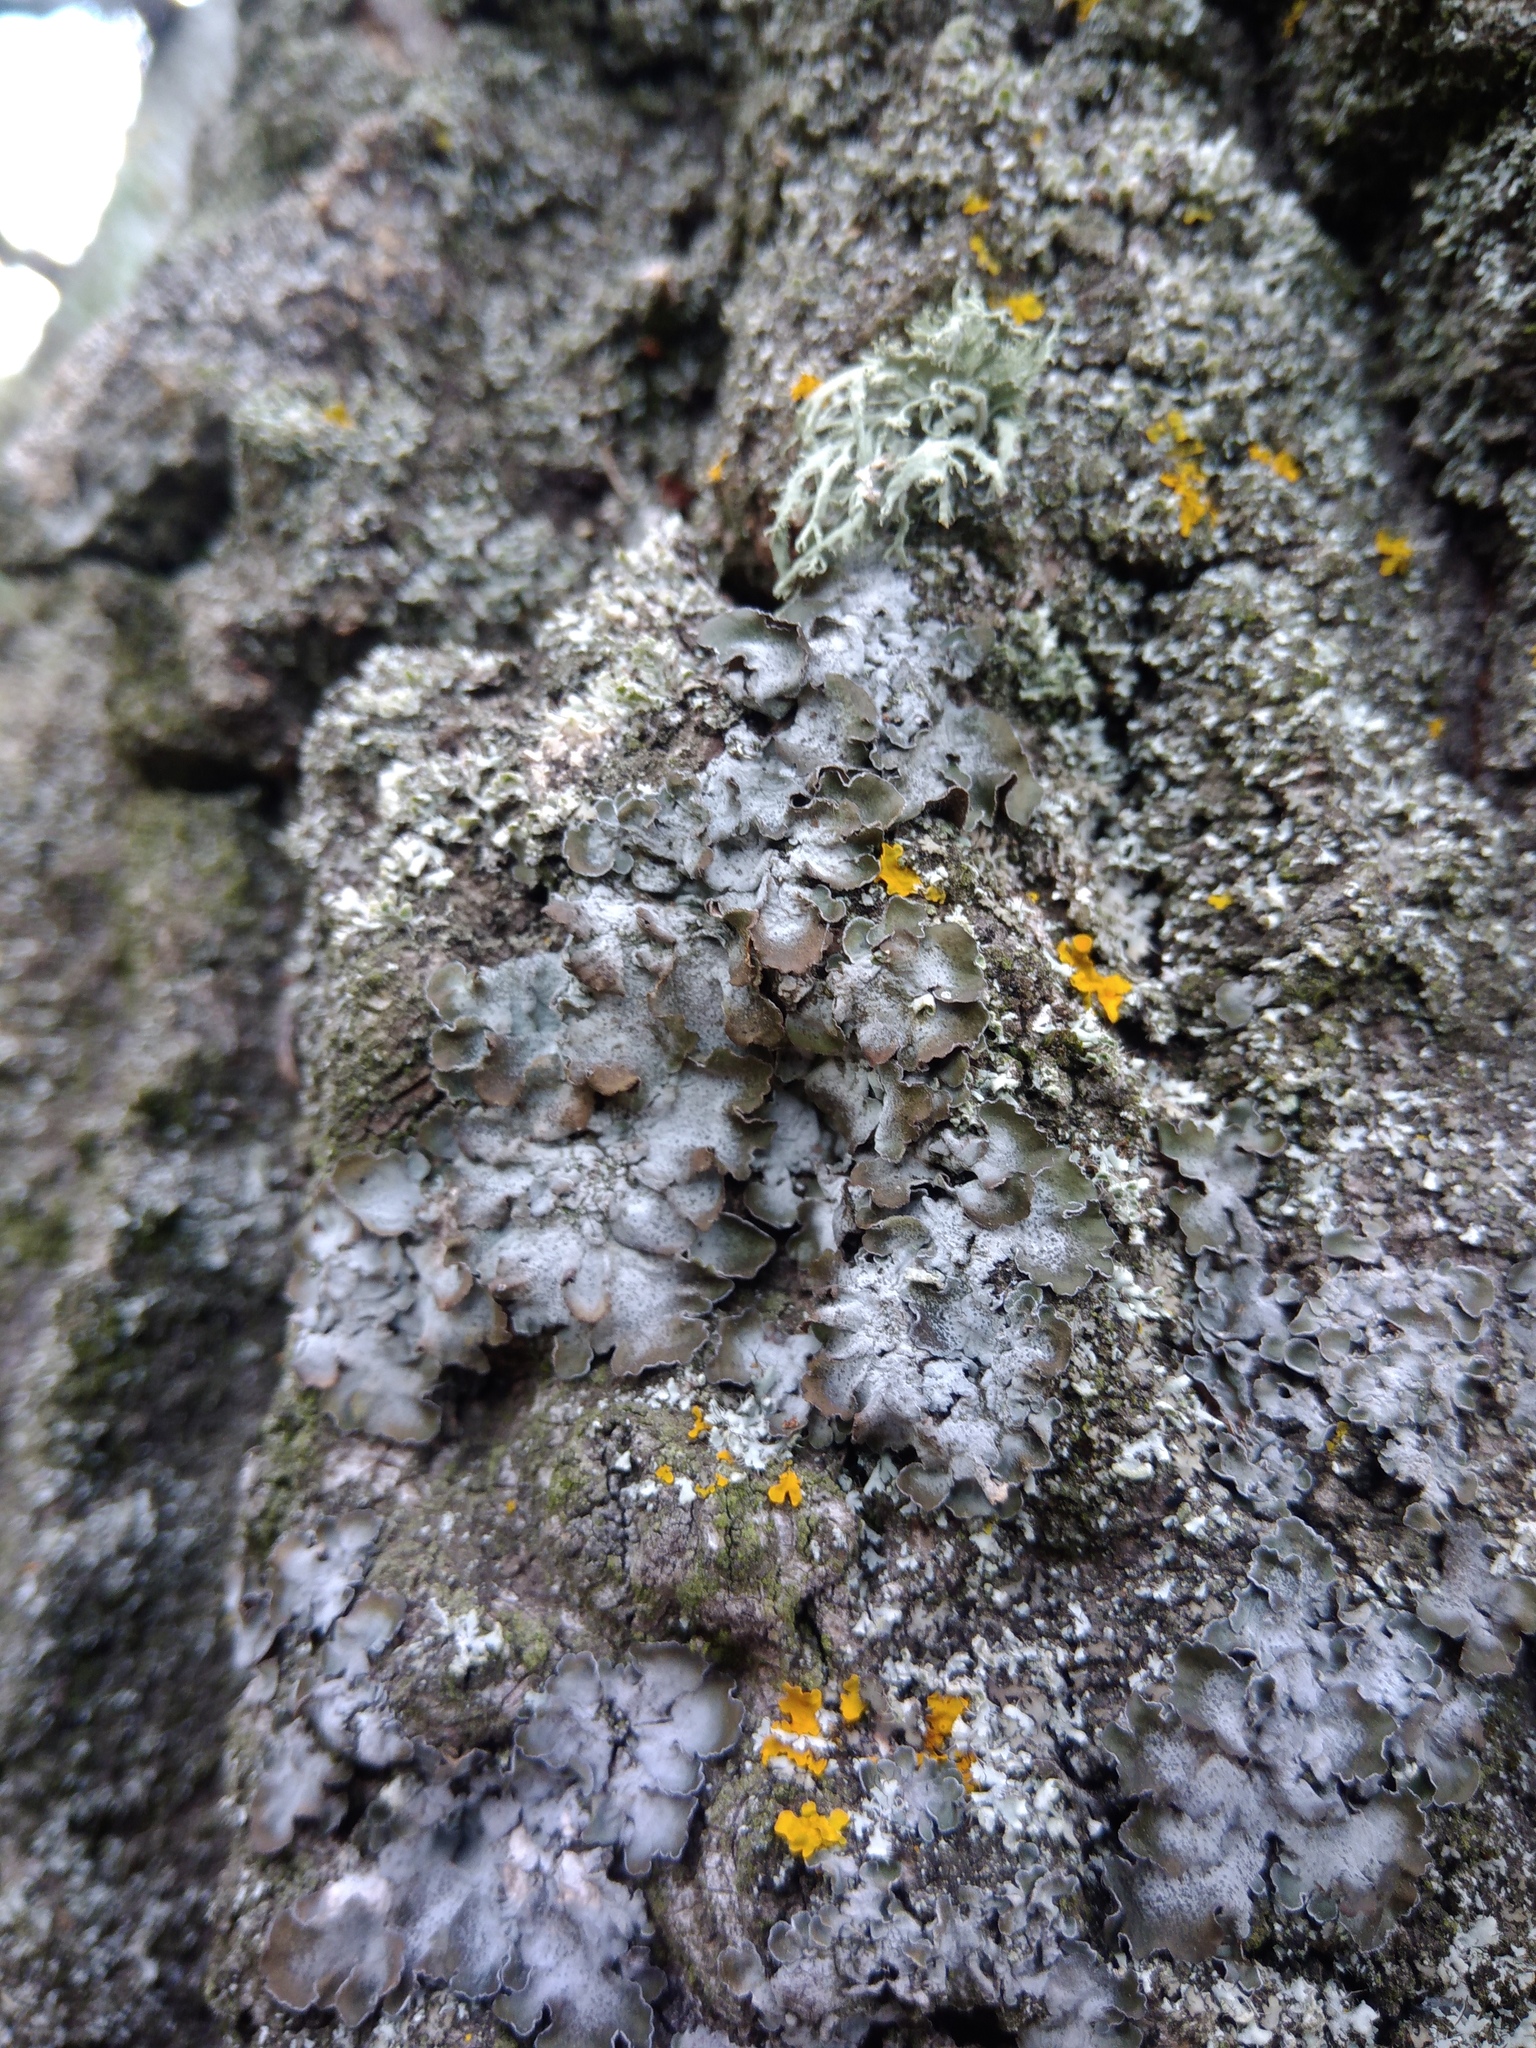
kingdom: Fungi
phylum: Ascomycota
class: Lecanoromycetes
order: Lecanorales
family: Parmeliaceae
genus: Pleurosticta
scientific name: Pleurosticta acetabulum
